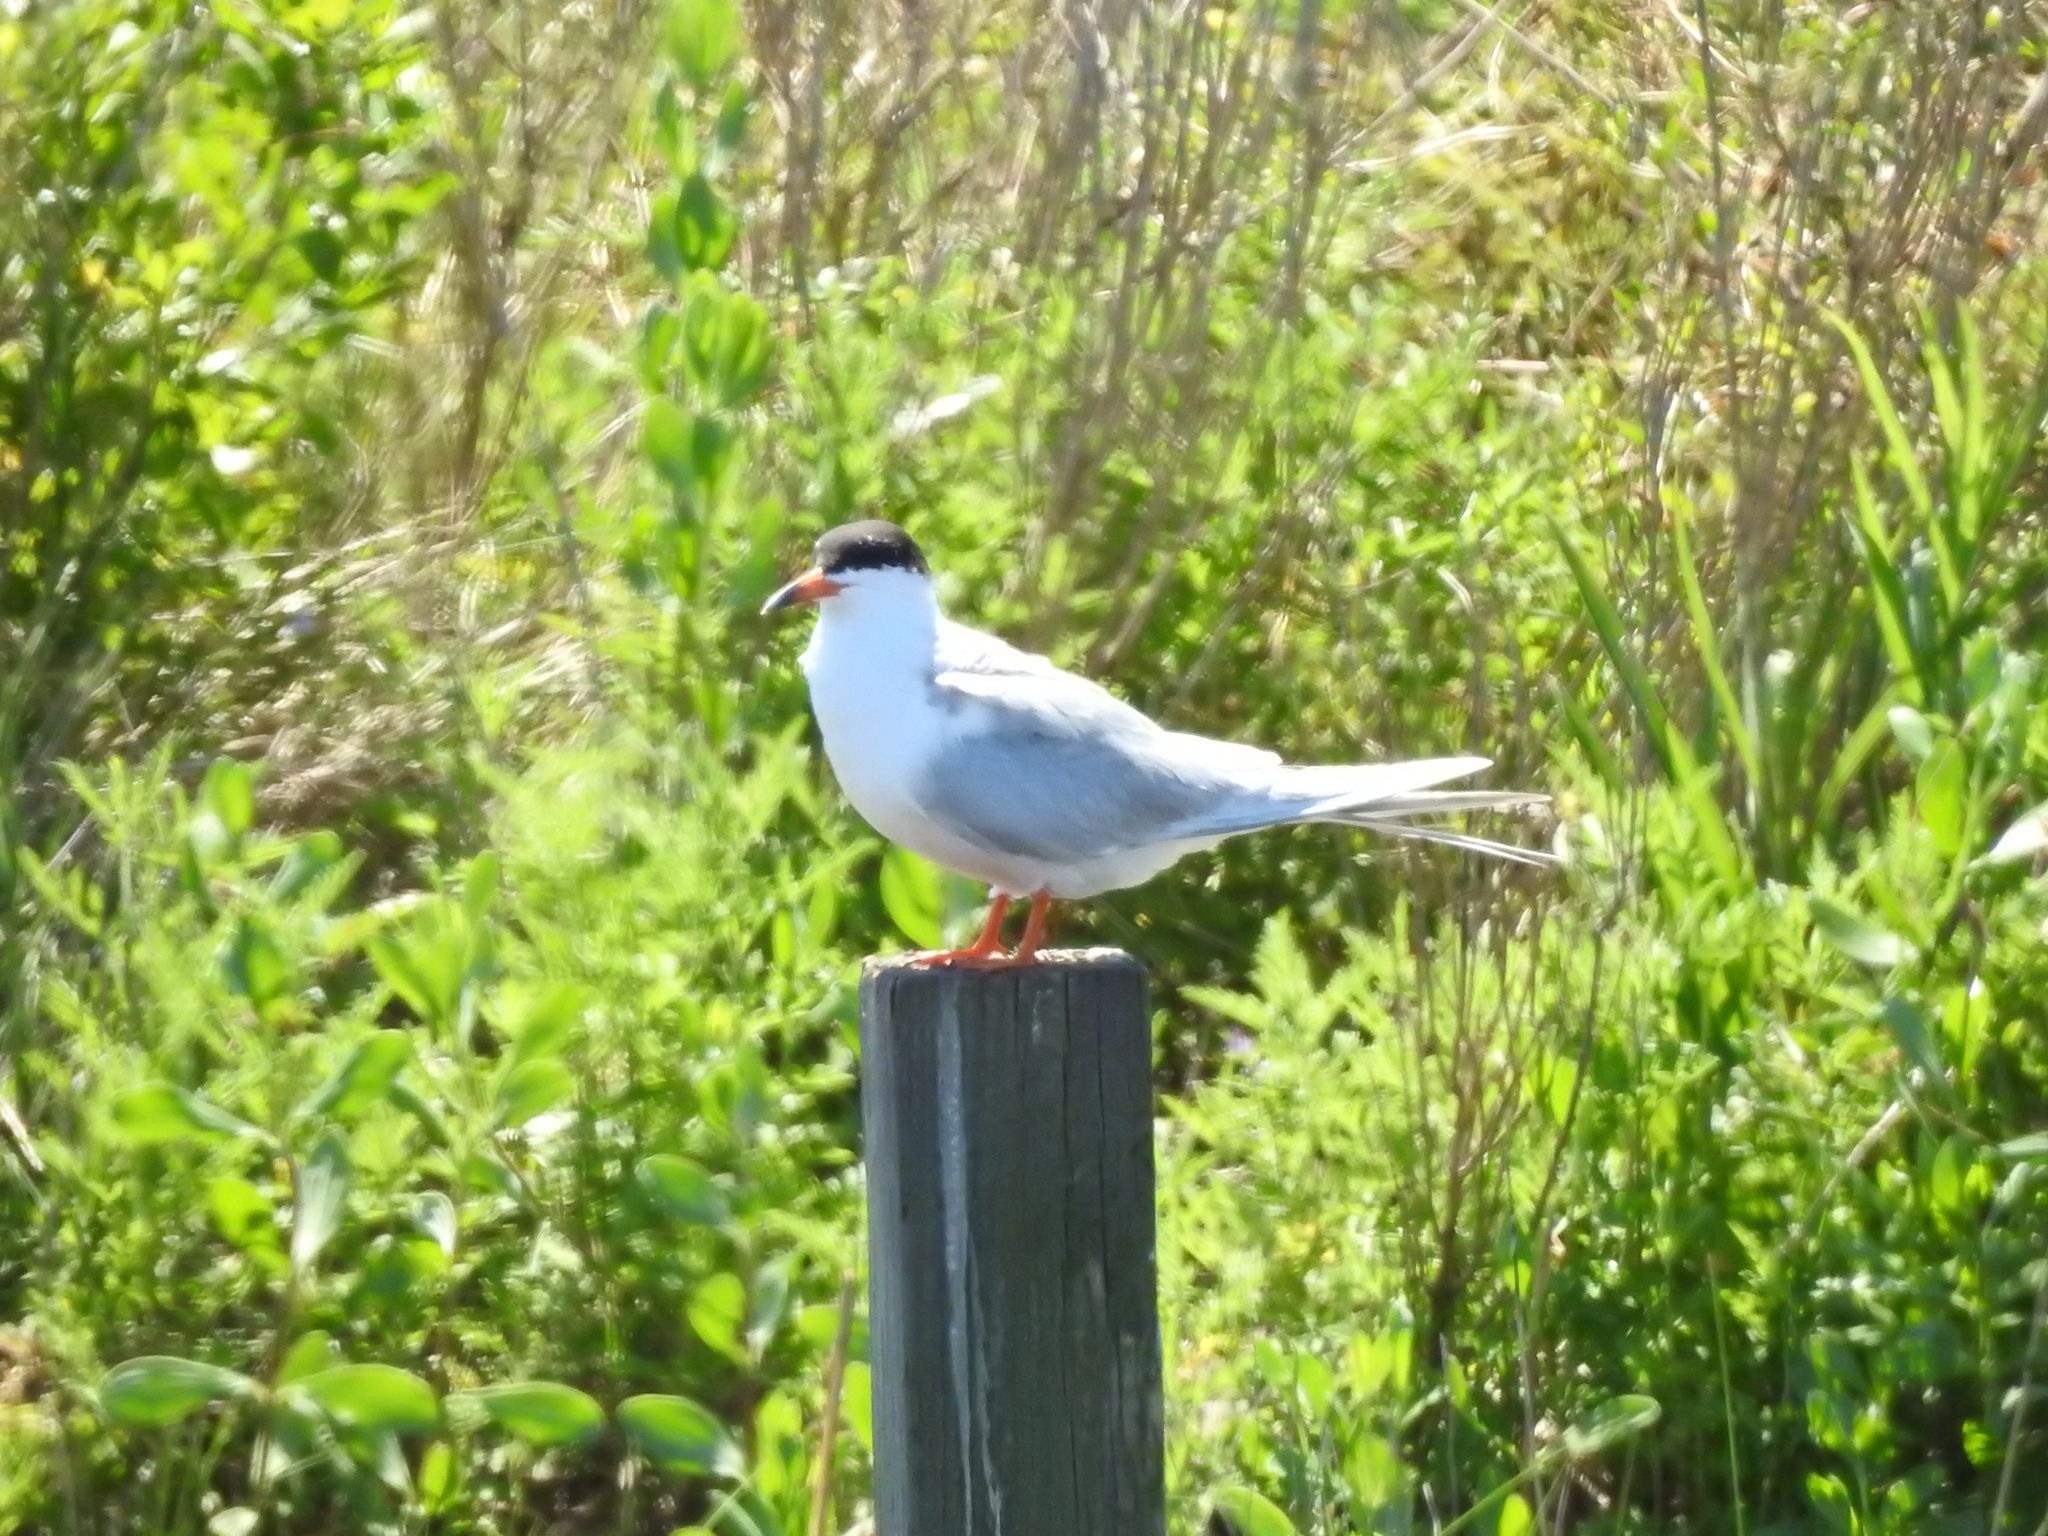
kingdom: Animalia
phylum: Chordata
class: Aves
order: Charadriiformes
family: Laridae
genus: Sterna
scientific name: Sterna forsteri
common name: Forster's tern
